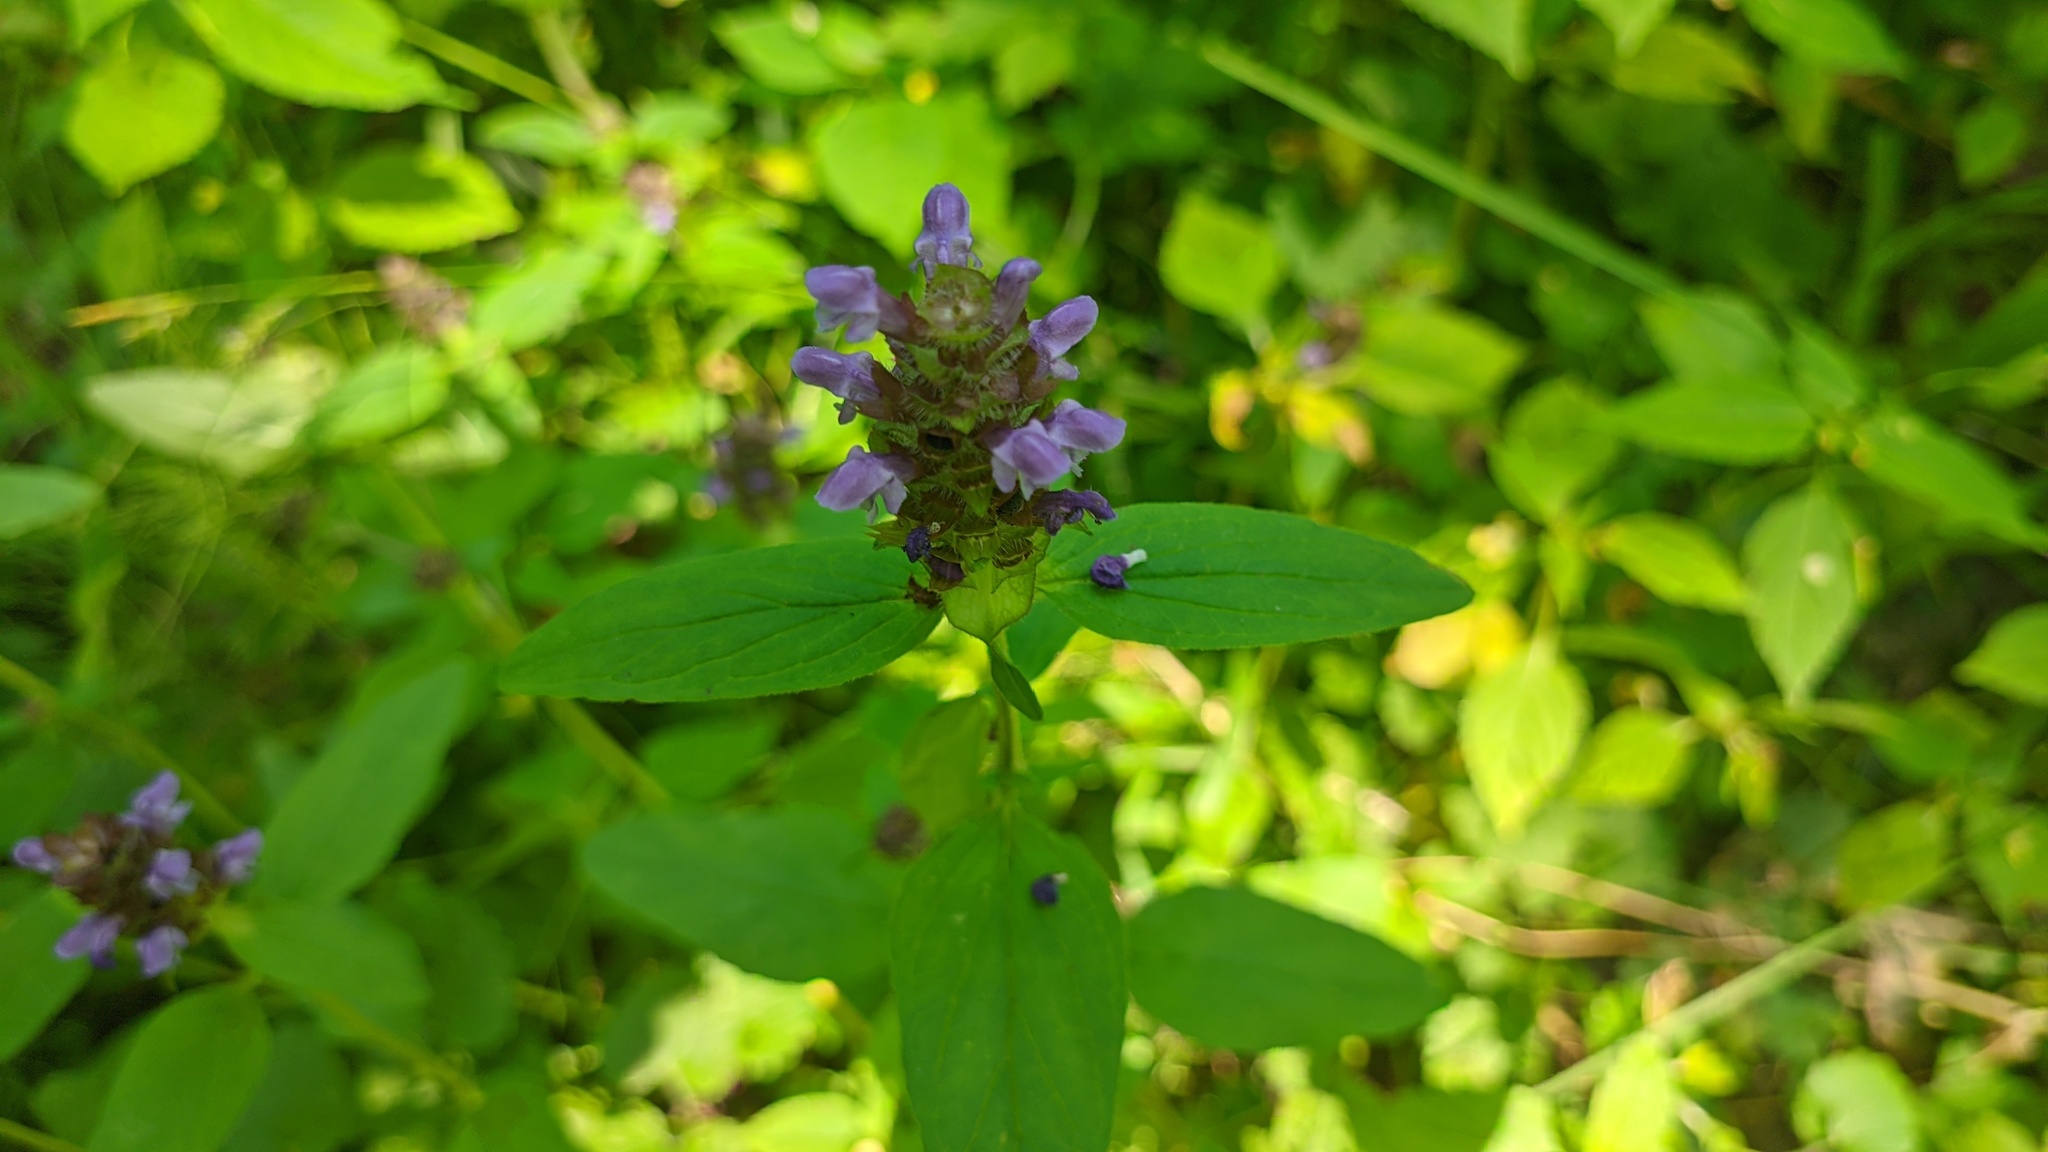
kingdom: Plantae
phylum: Tracheophyta
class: Magnoliopsida
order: Lamiales
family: Lamiaceae
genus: Prunella
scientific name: Prunella vulgaris
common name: Heal-all
